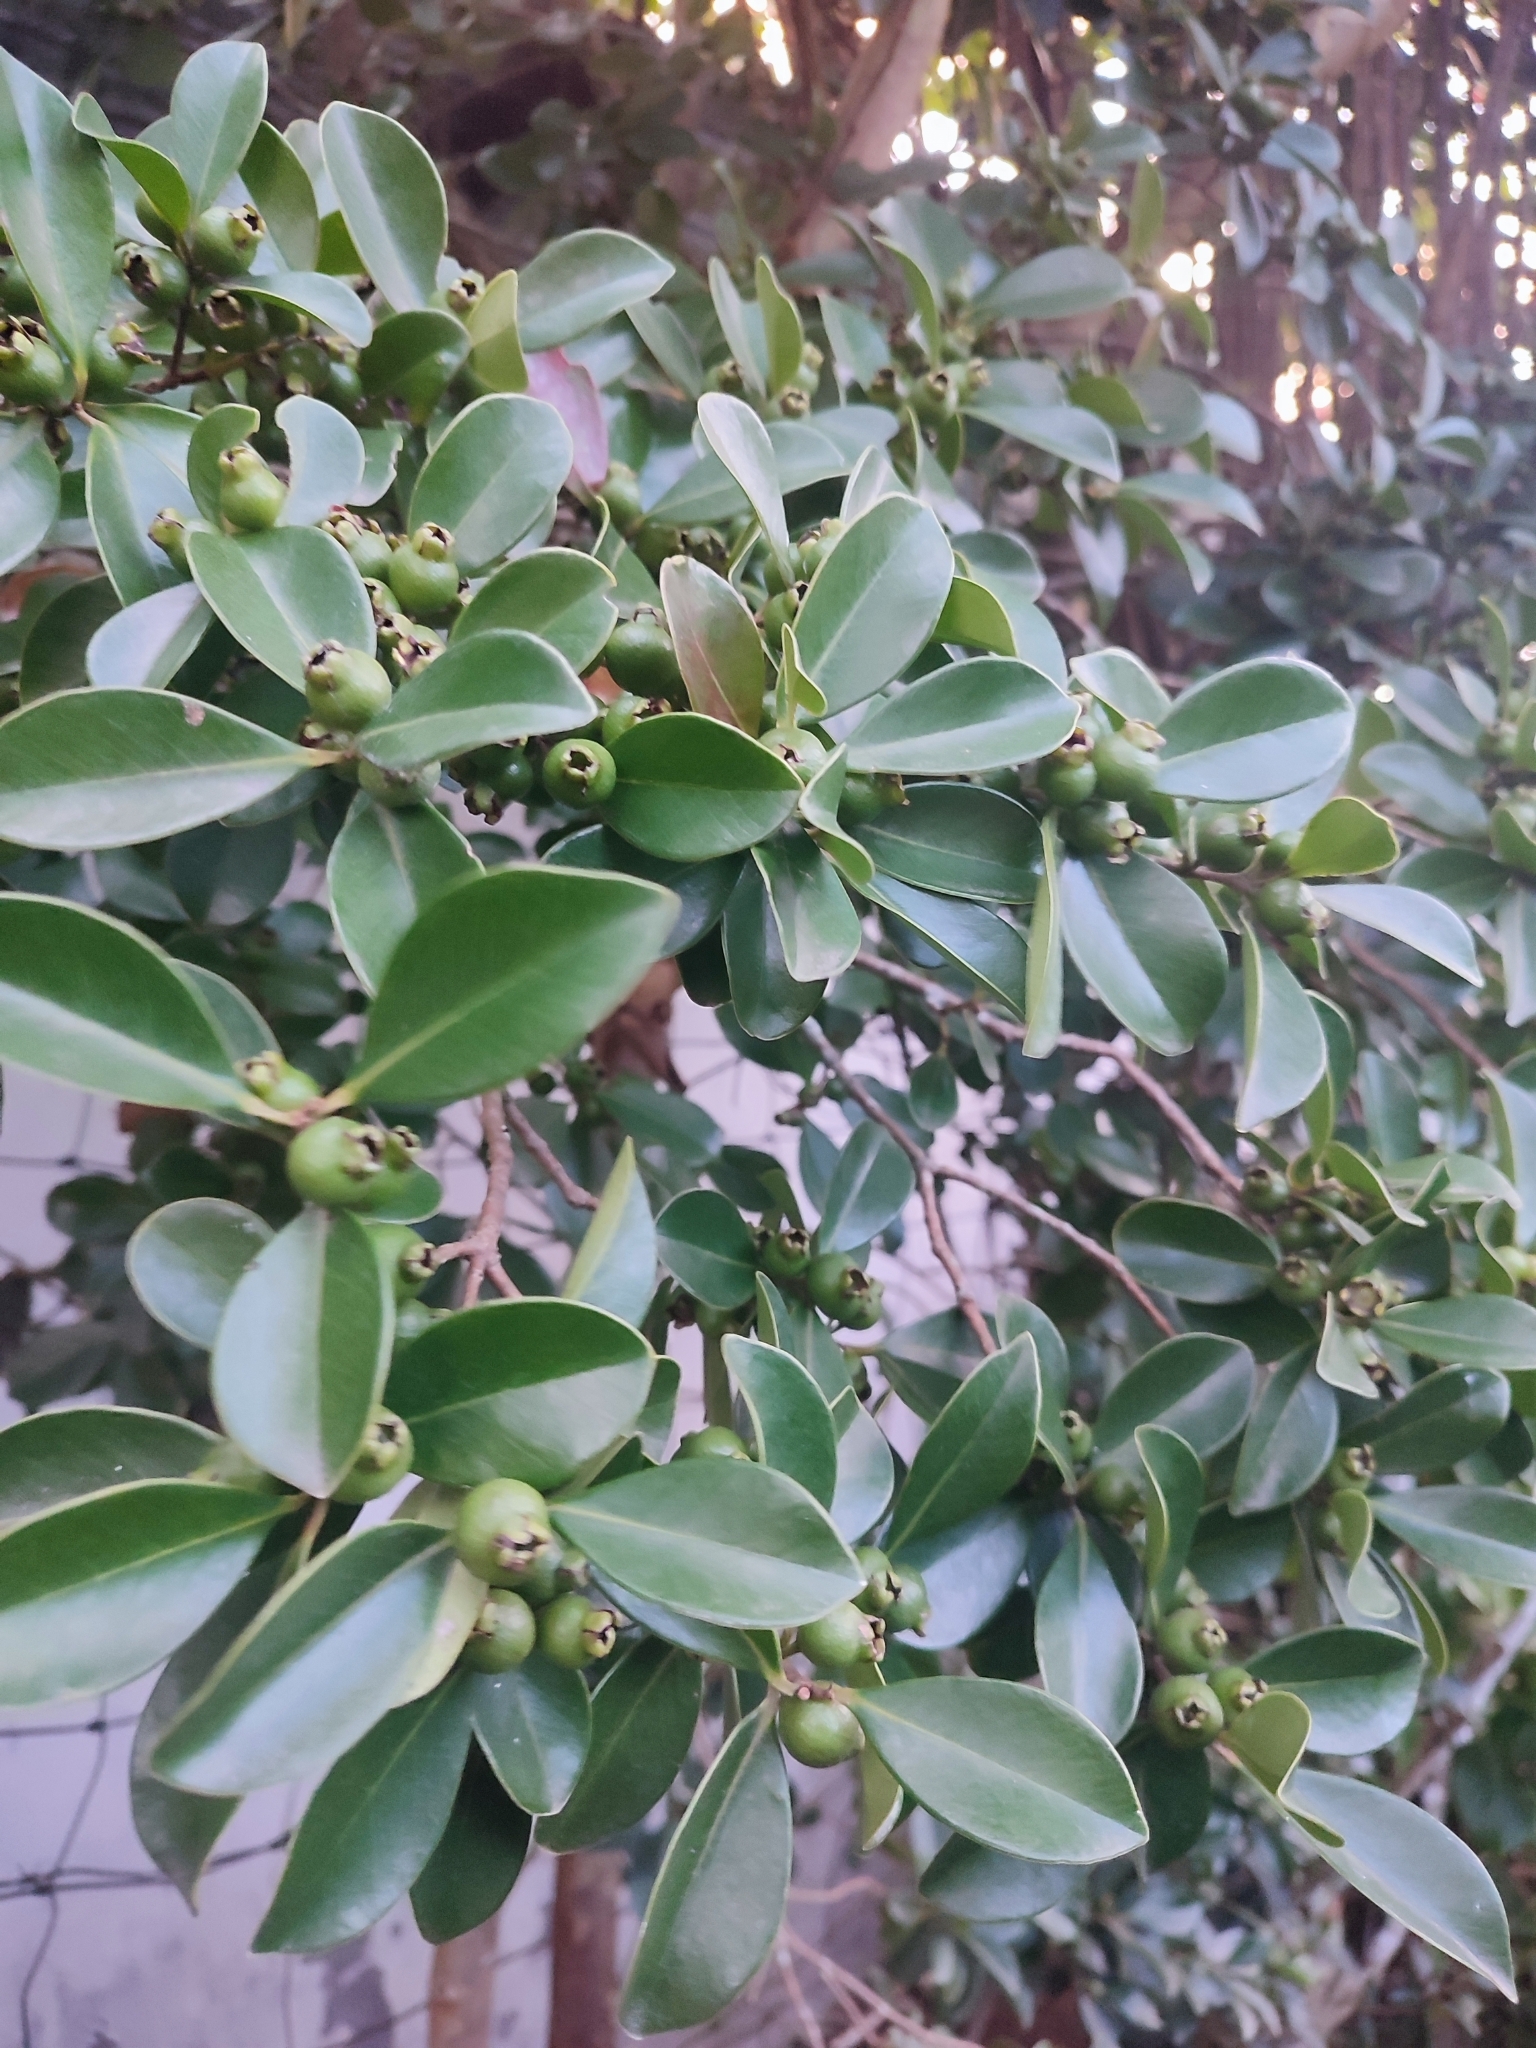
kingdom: Plantae
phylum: Tracheophyta
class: Magnoliopsida
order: Myrtales
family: Myrtaceae
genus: Psidium
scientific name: Psidium cattleianum
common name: Strawberry guava
